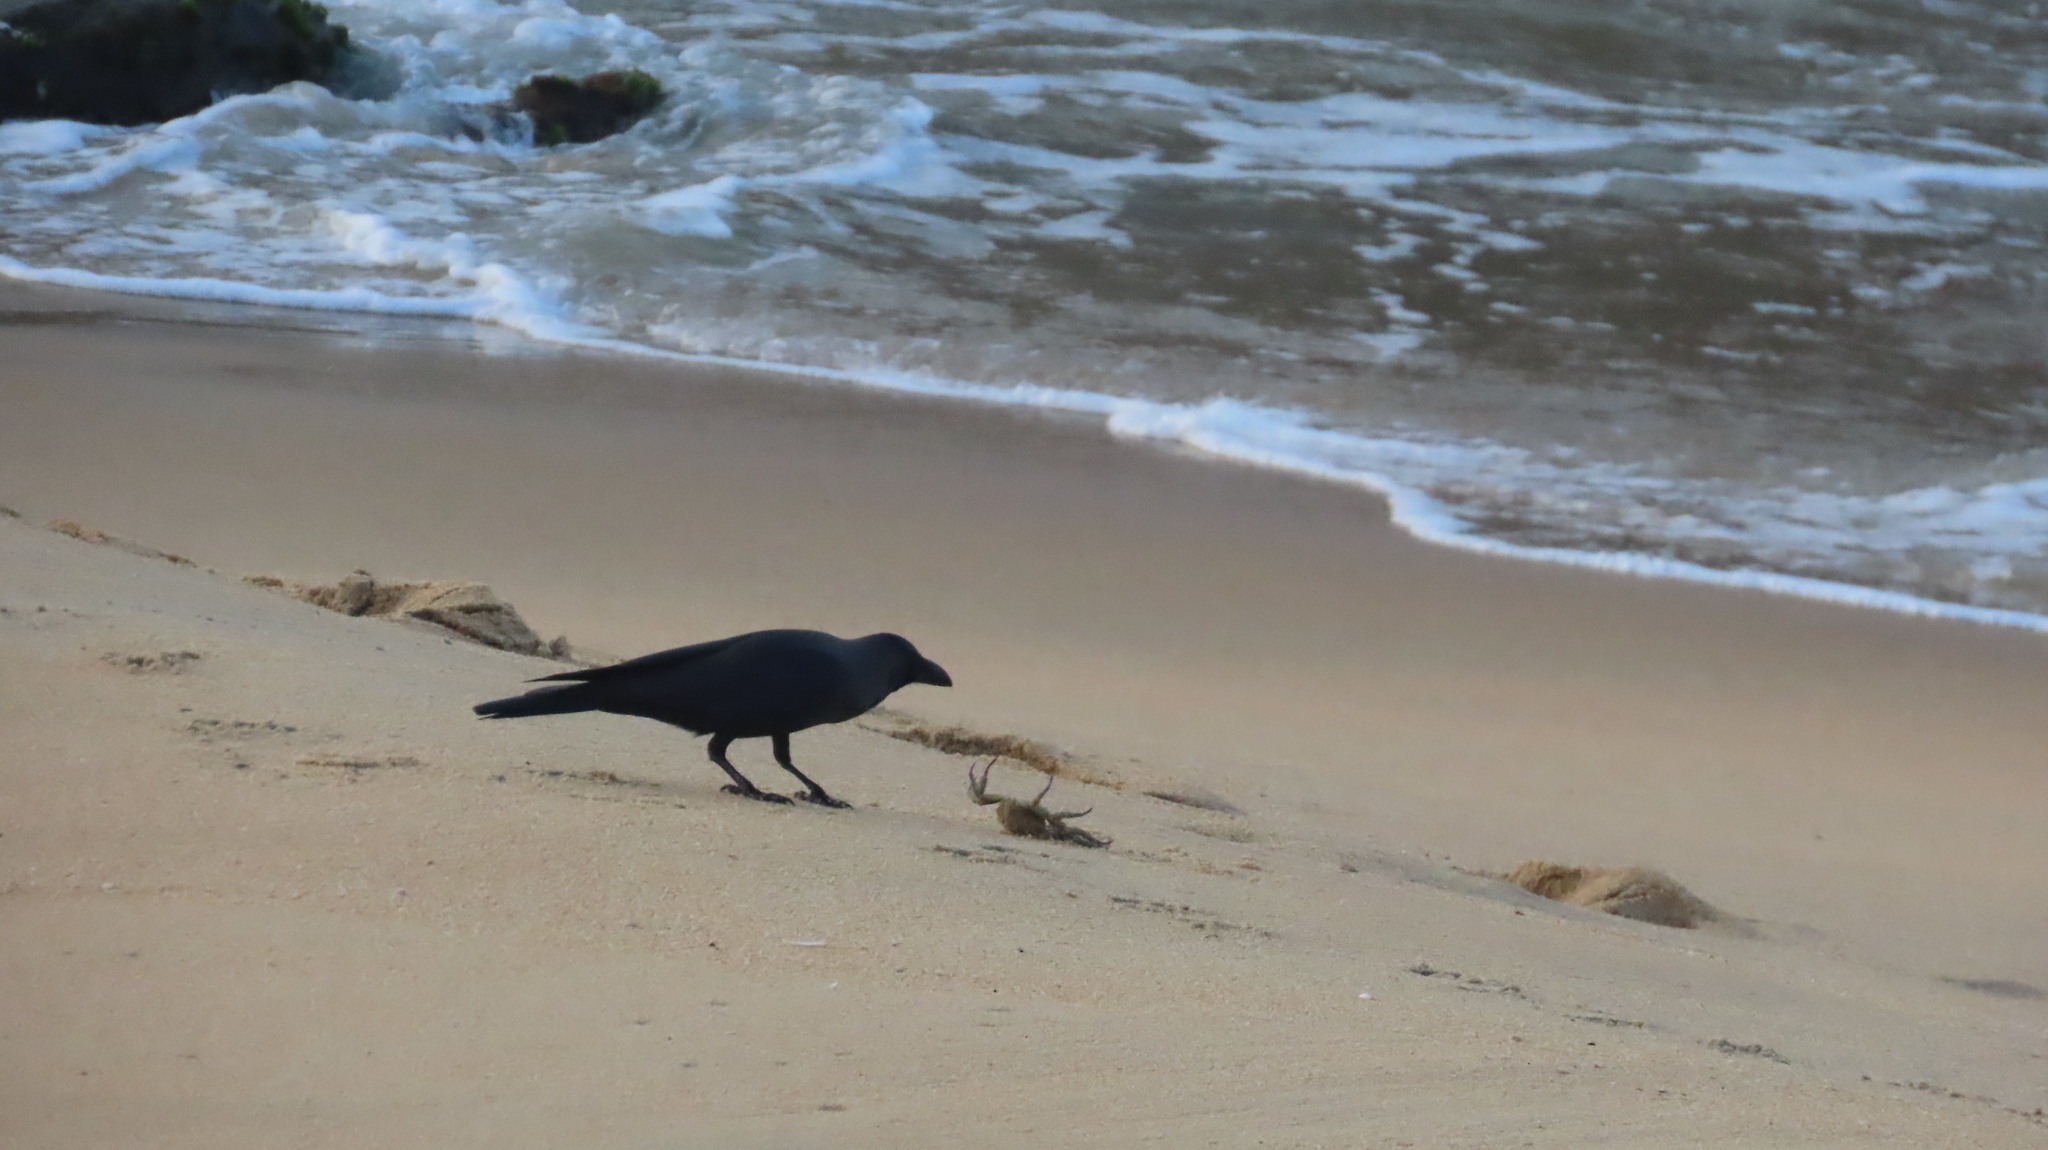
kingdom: Animalia
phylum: Chordata
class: Aves
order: Passeriformes
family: Corvidae
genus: Corvus
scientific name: Corvus splendens
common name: House crow
